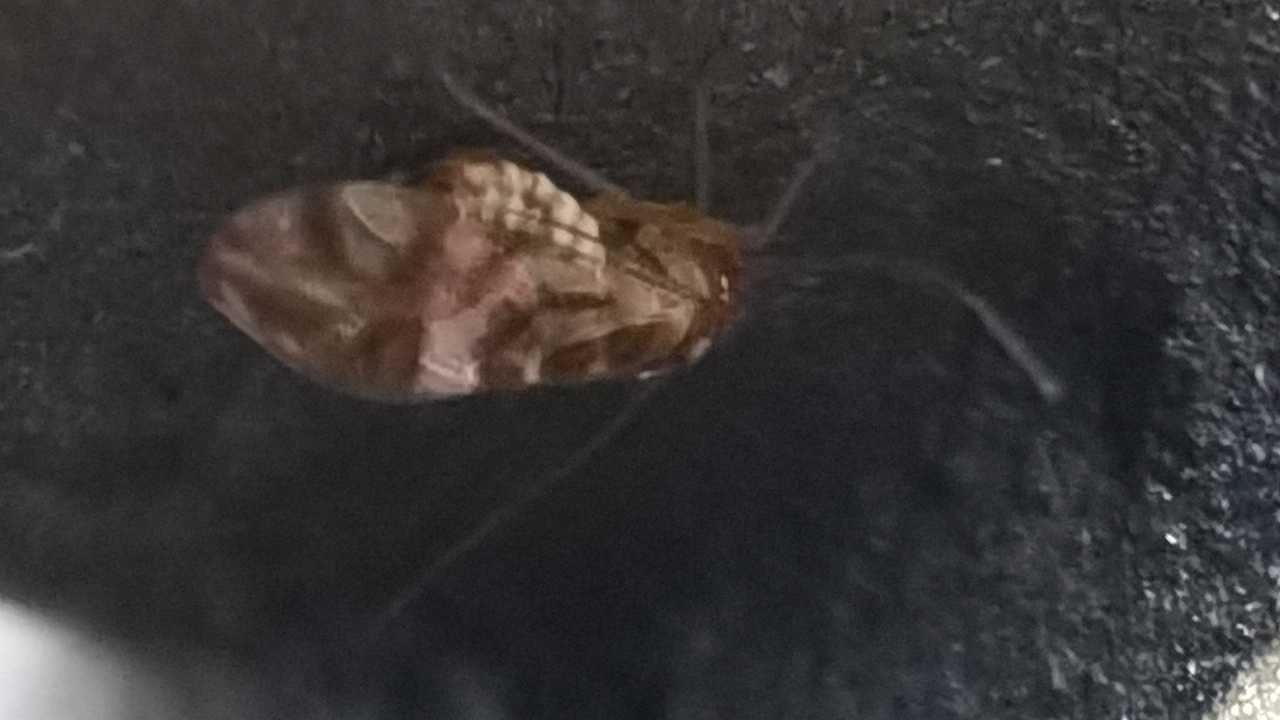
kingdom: Animalia
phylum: Arthropoda
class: Insecta
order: Psocodea
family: Stenopsocidae
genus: Graphopsocus
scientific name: Graphopsocus cruciatus
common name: Lizard bark louse
